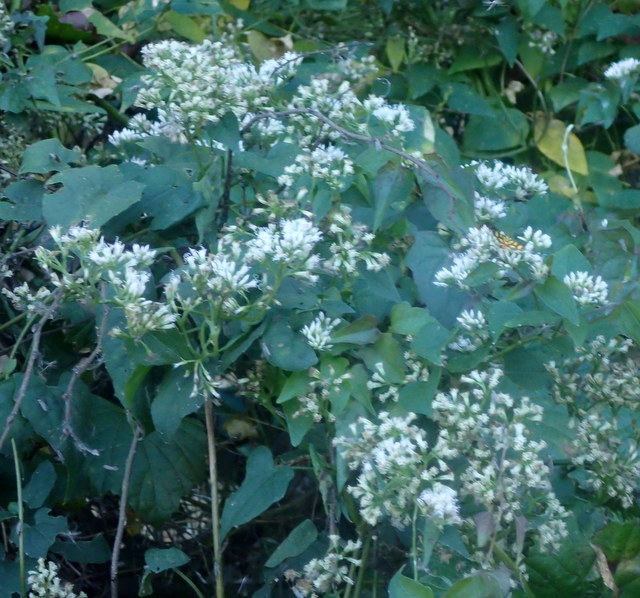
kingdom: Plantae
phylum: Tracheophyta
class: Magnoliopsida
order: Asterales
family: Asteraceae
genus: Mikania
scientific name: Mikania scandens
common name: Climbing hempvine
